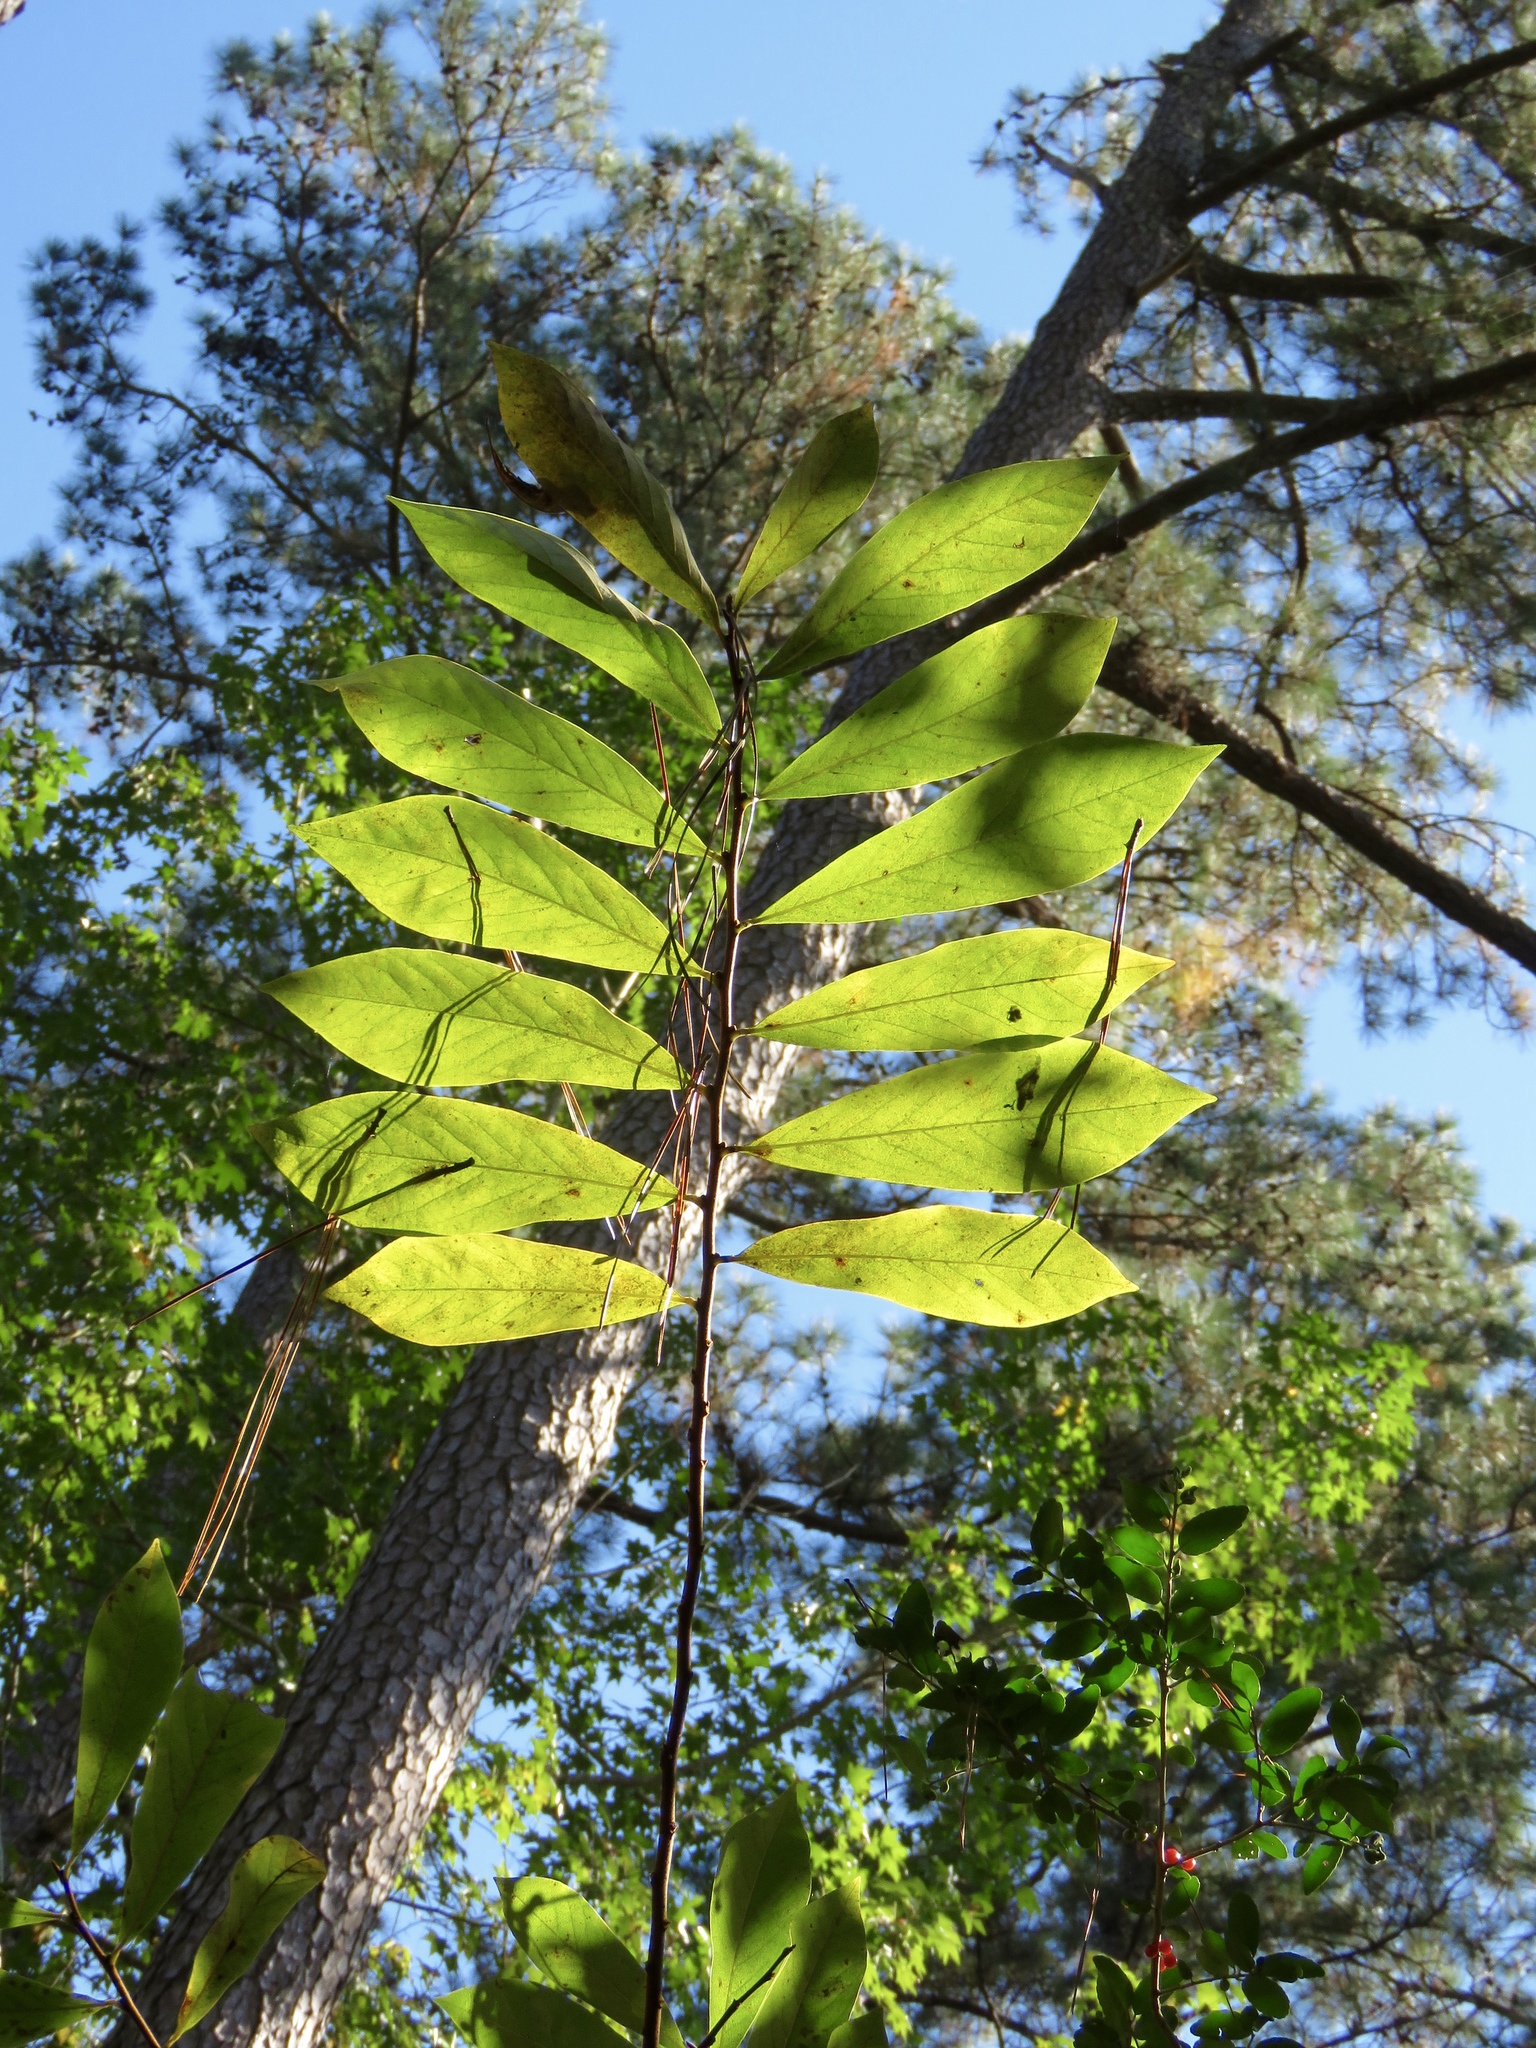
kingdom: Plantae
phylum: Tracheophyta
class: Magnoliopsida
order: Magnoliales
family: Annonaceae
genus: Asimina
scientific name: Asimina parviflora
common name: Dwarf pawpaw
